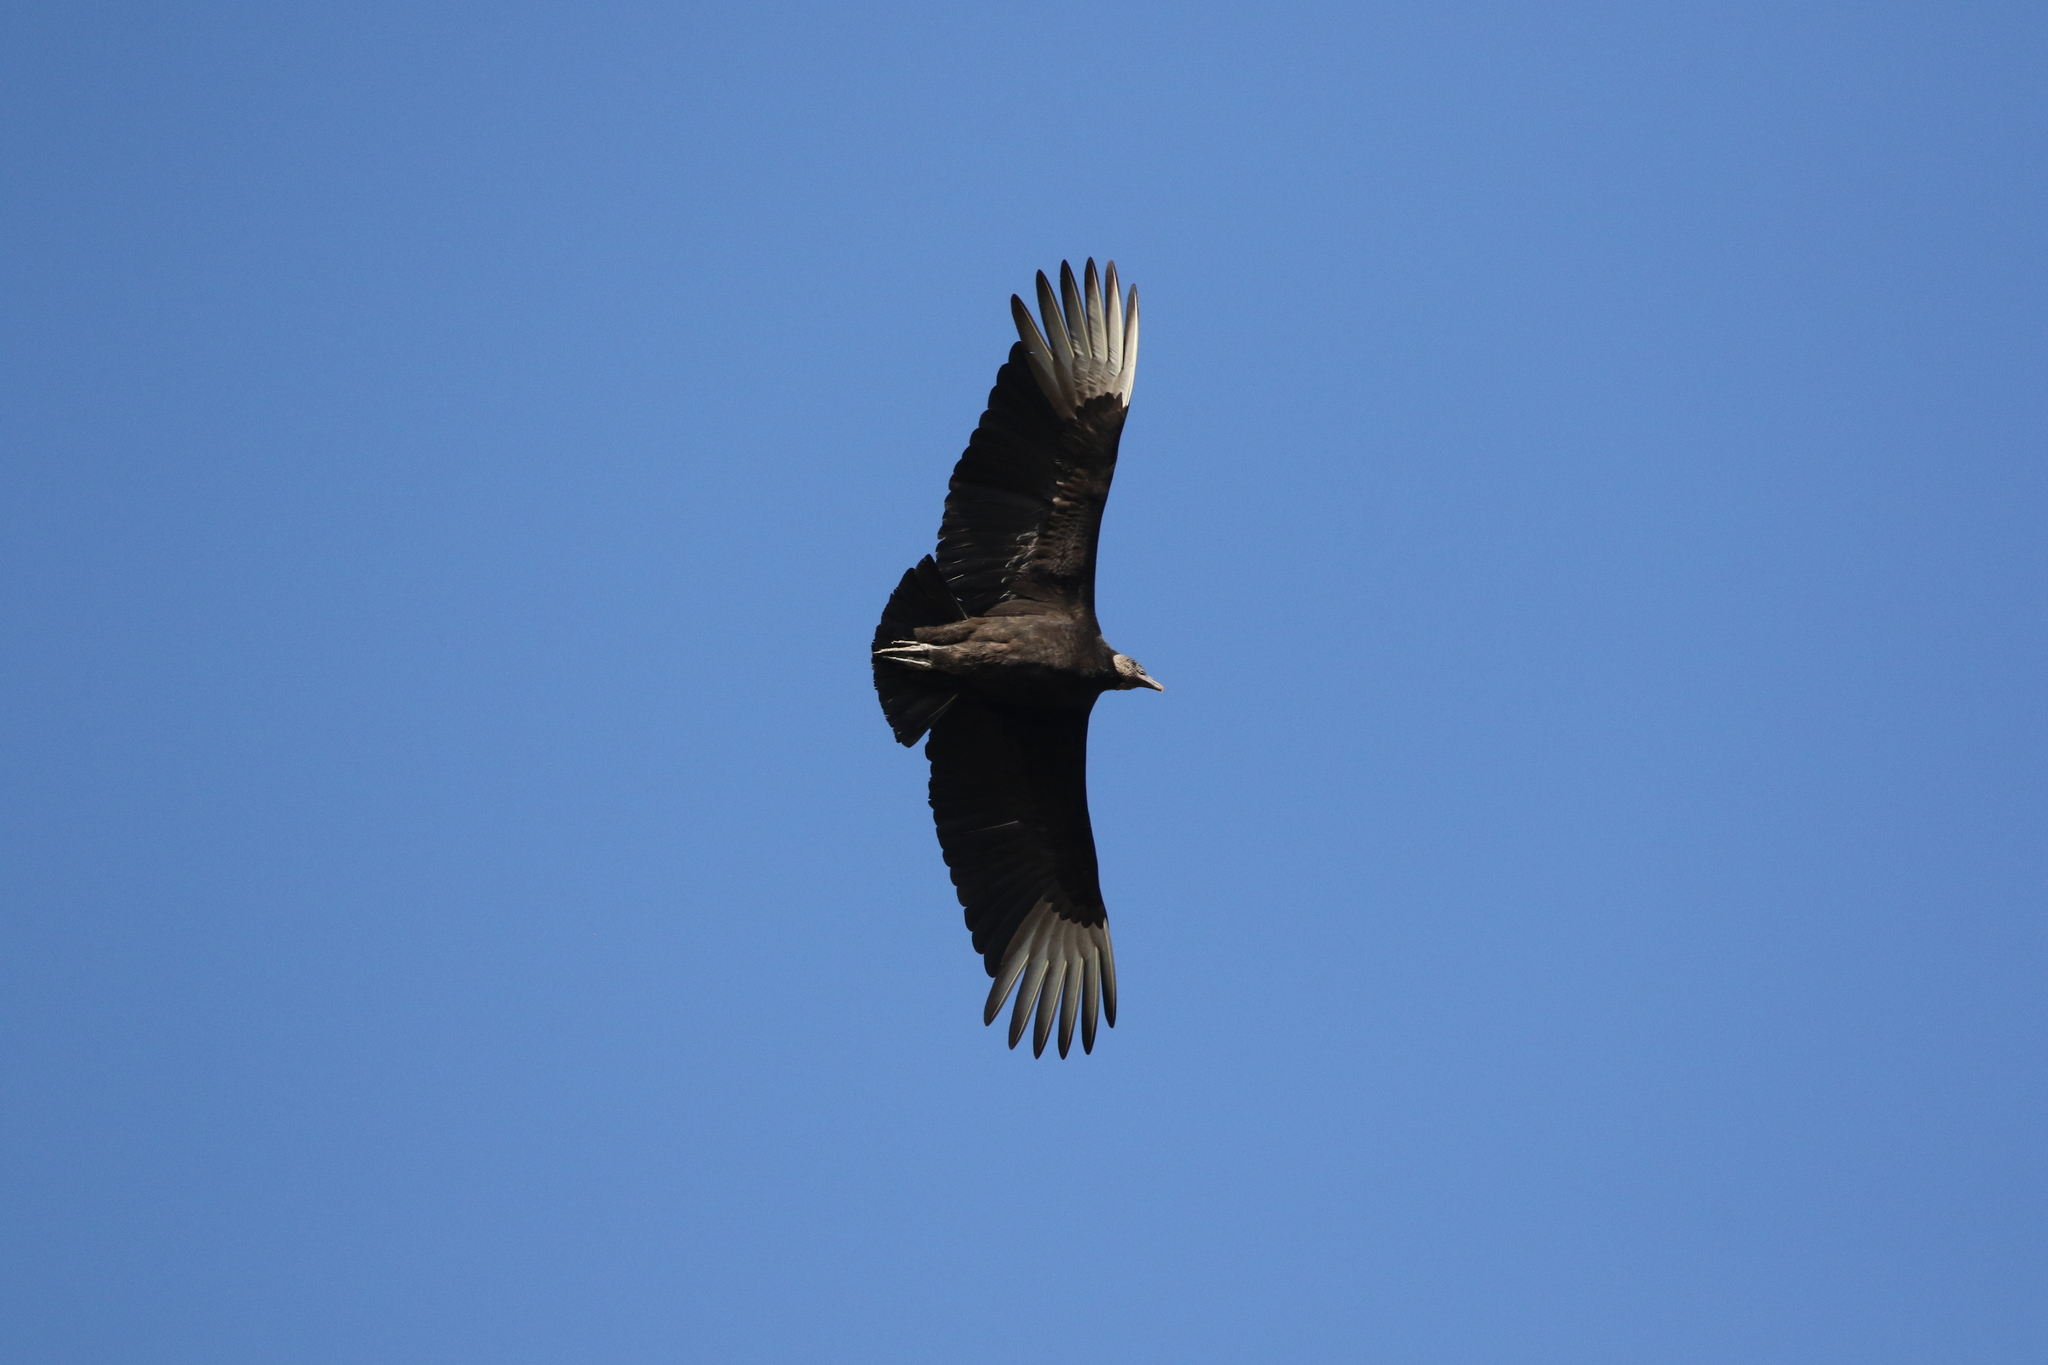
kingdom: Animalia
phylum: Chordata
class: Aves
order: Accipitriformes
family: Cathartidae
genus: Coragyps
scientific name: Coragyps atratus
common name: Black vulture
